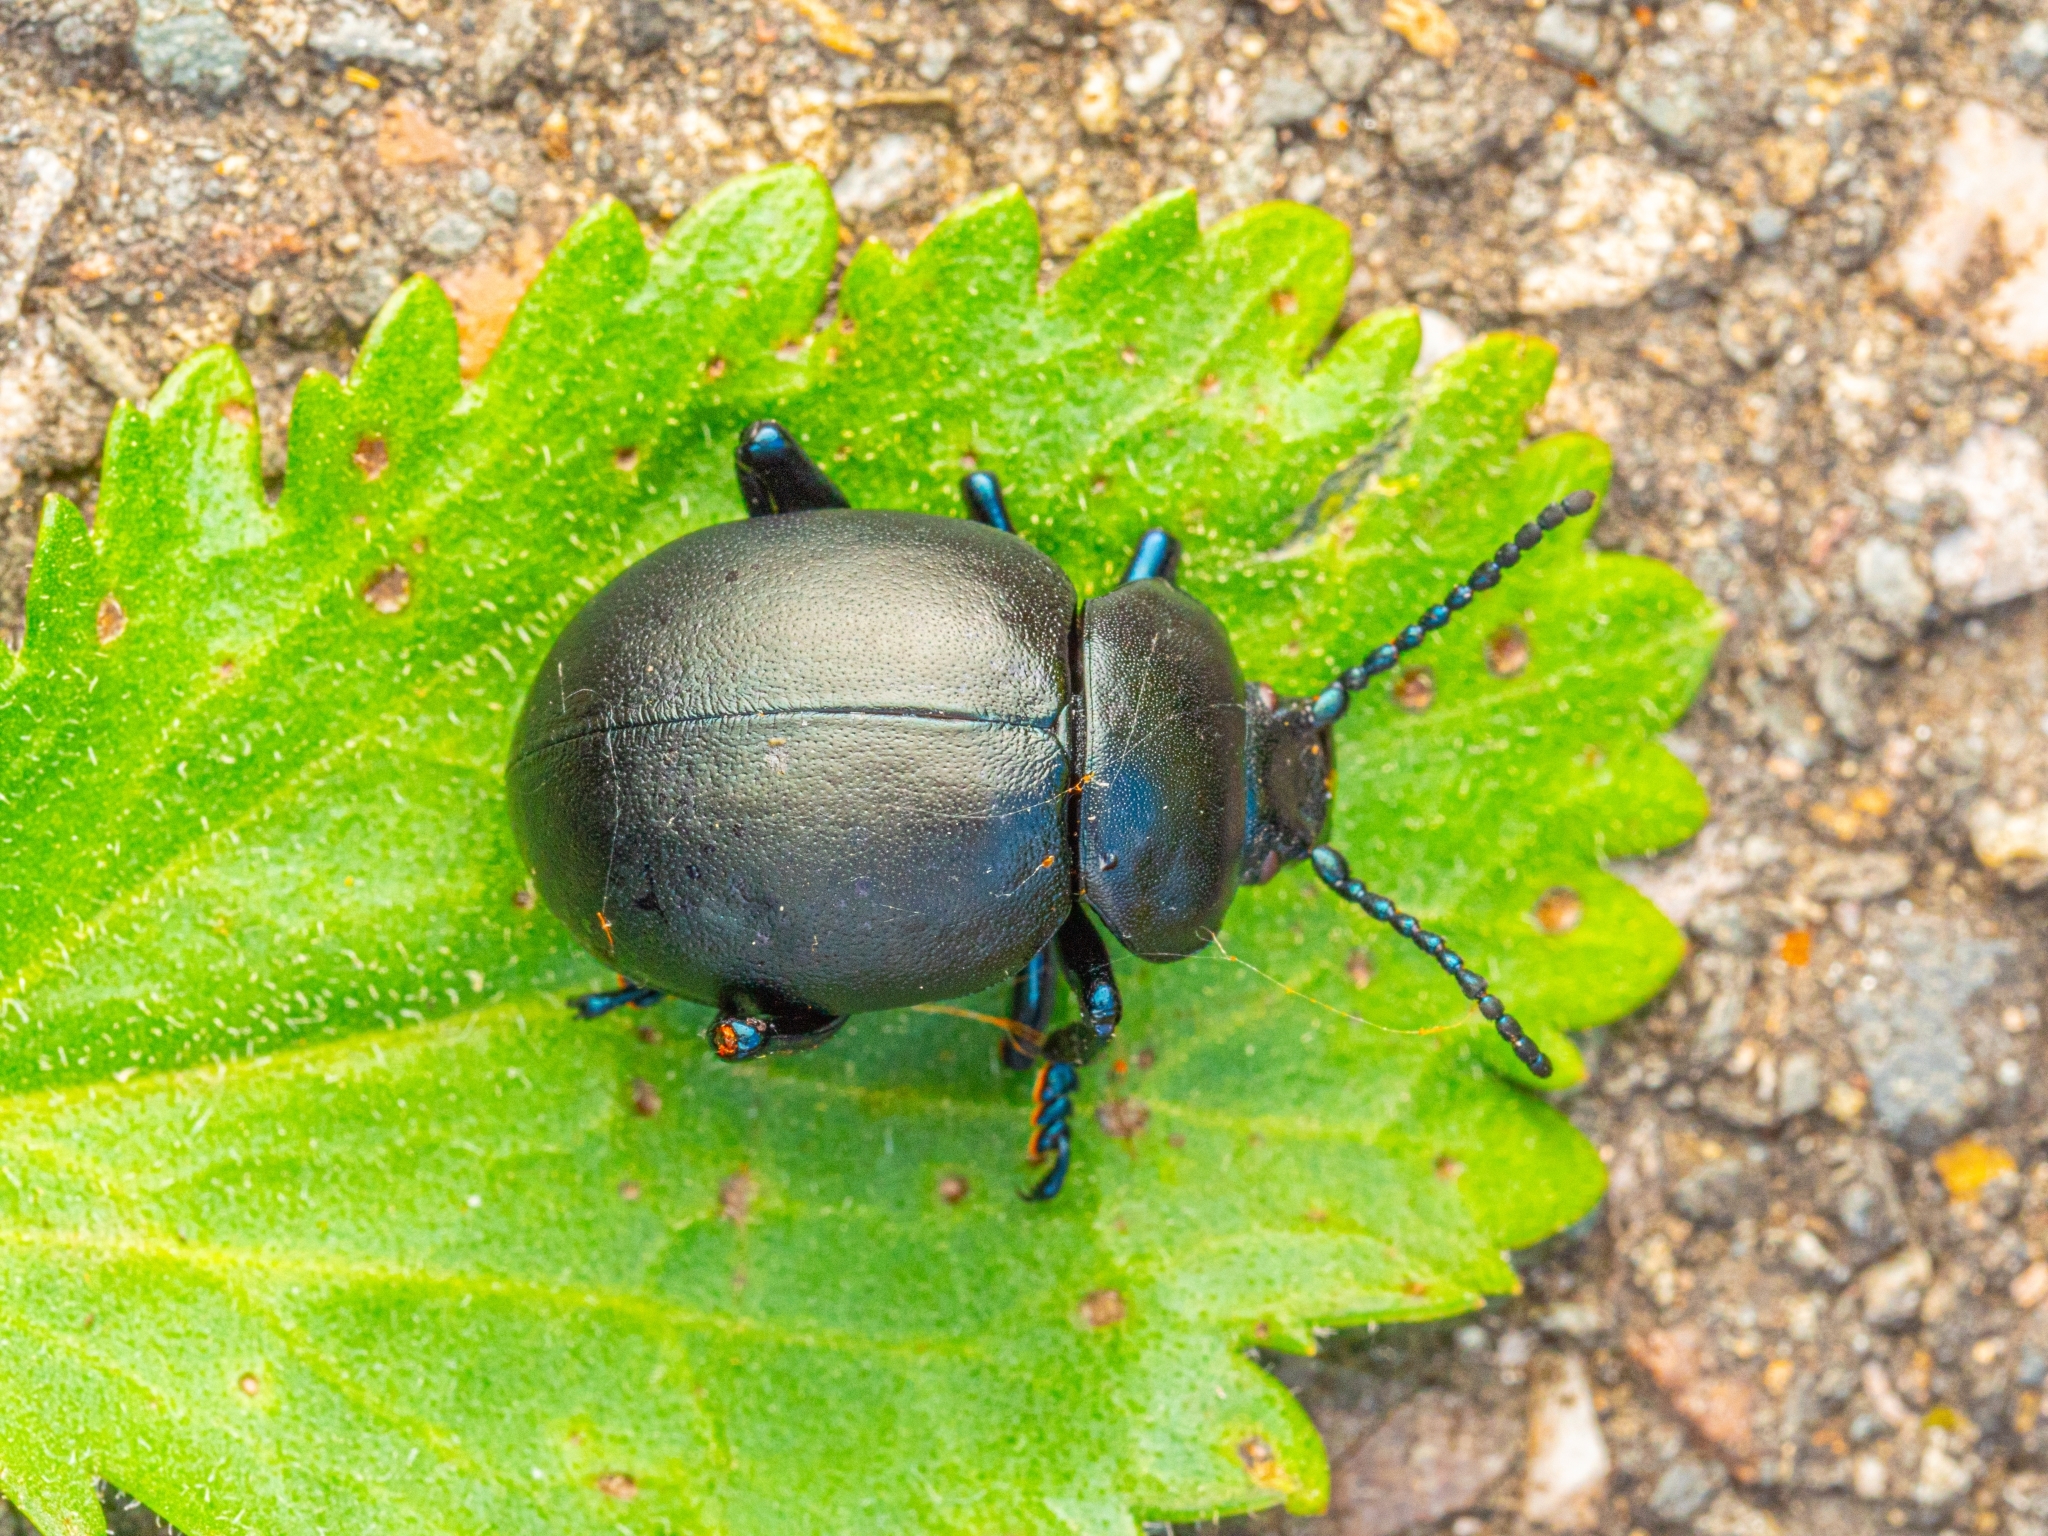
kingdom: Animalia
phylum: Arthropoda
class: Insecta
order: Coleoptera
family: Chrysomelidae
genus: Timarcha
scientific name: Timarcha tenebricosa
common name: Bloody-nosed beetle
